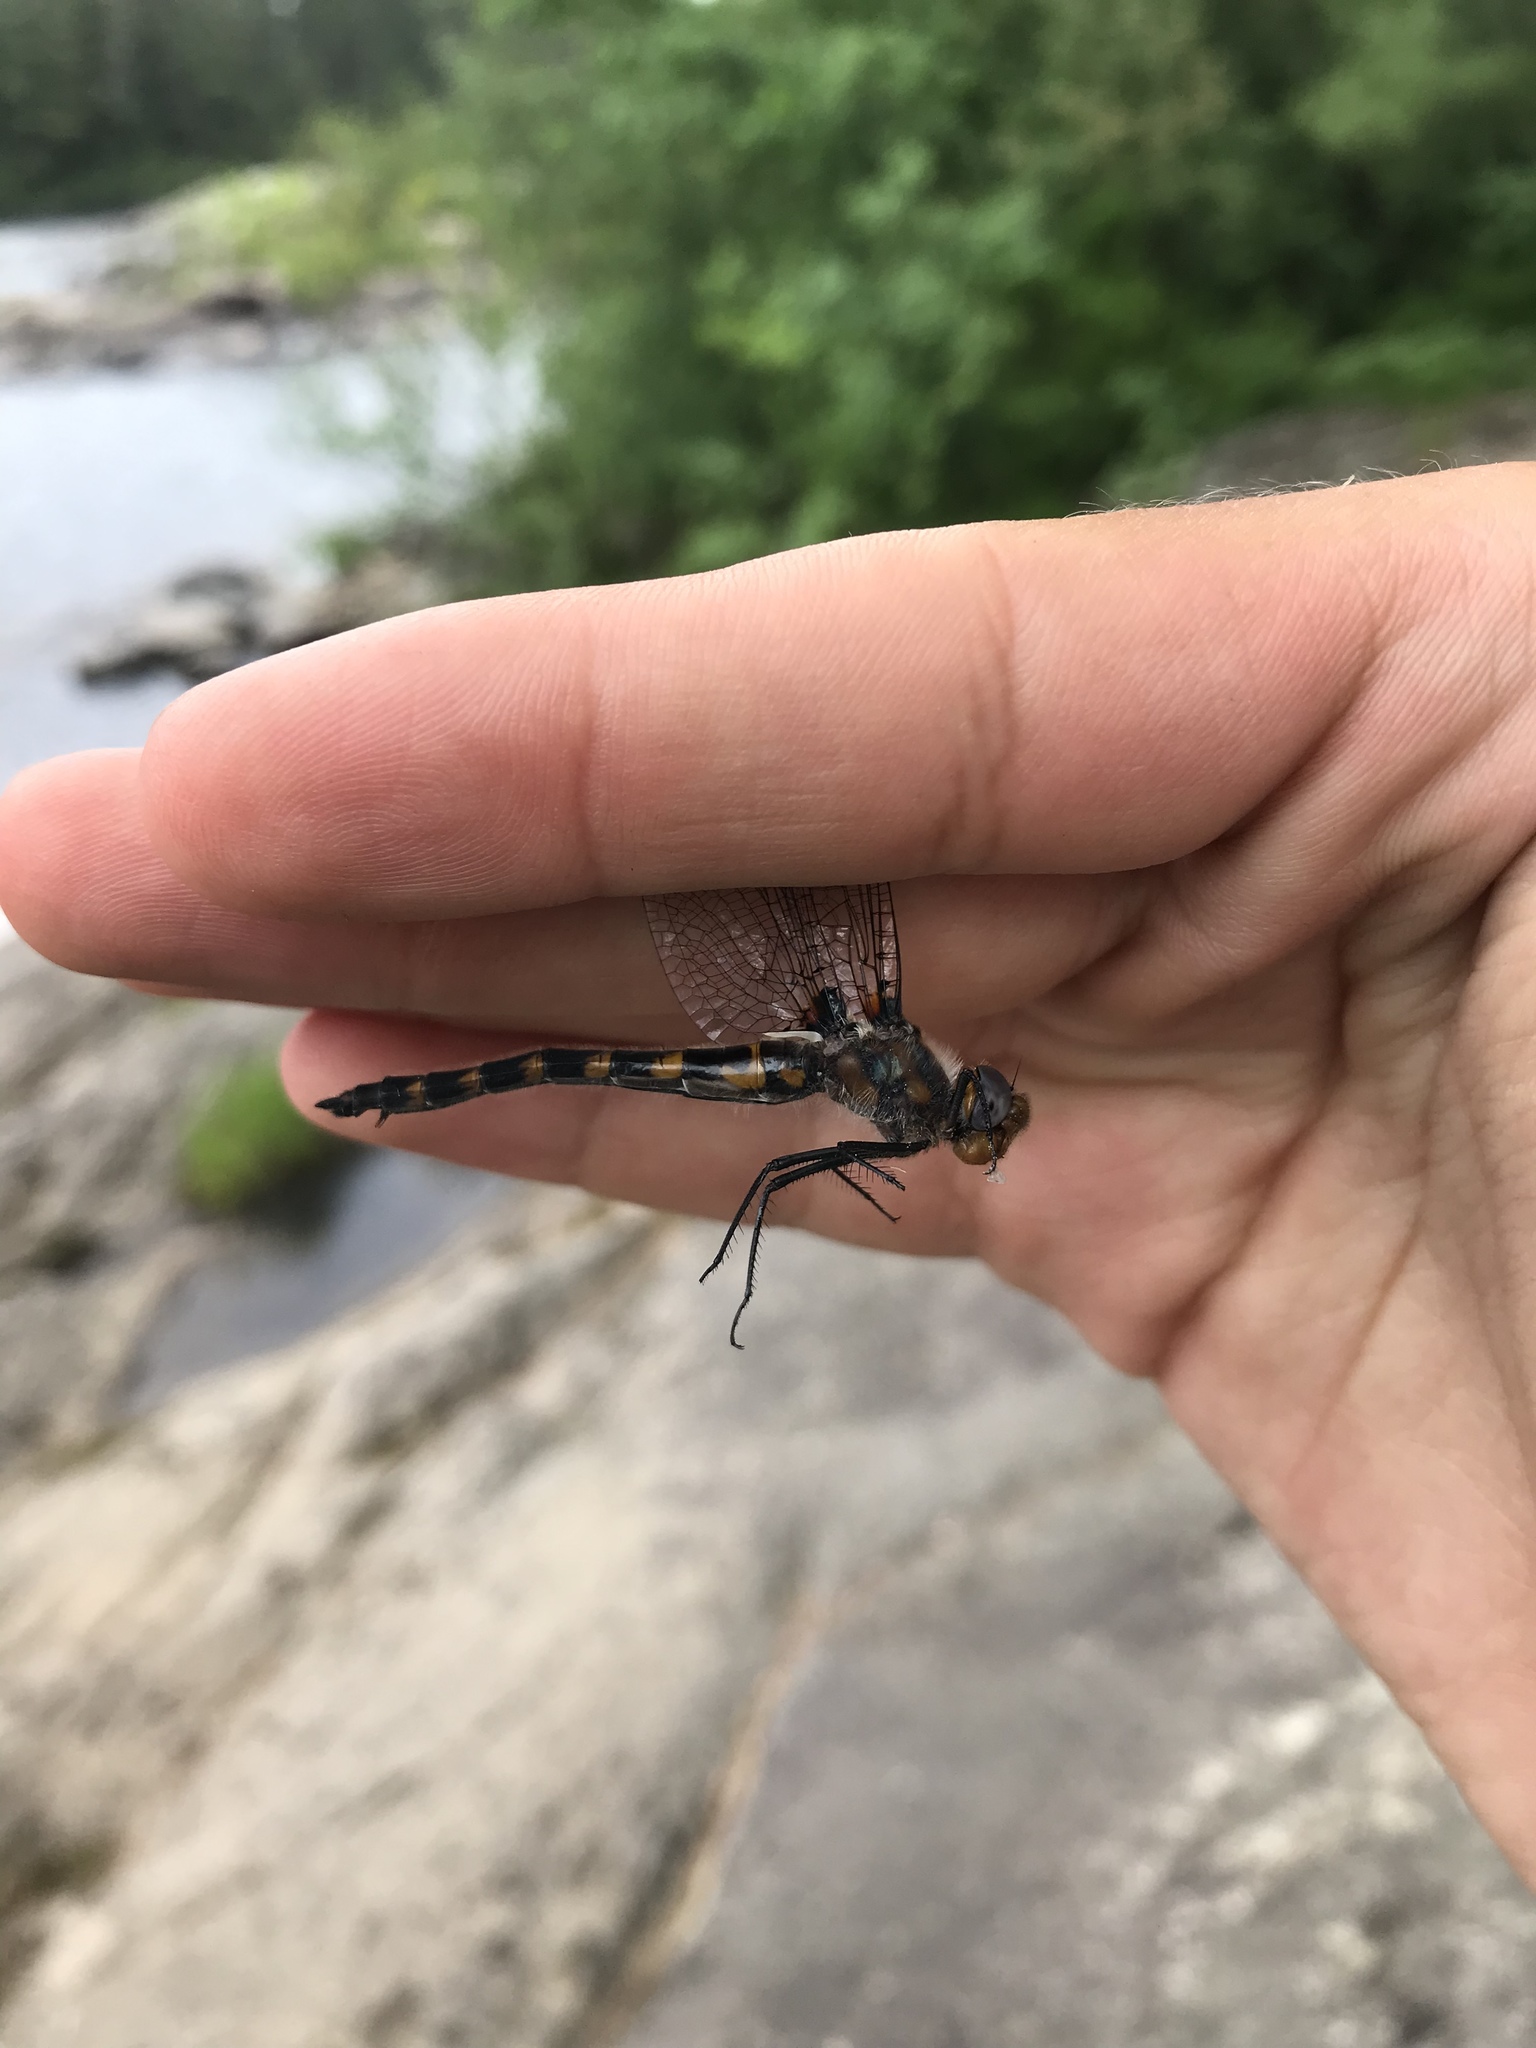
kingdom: Animalia
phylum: Arthropoda
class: Insecta
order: Odonata
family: Corduliidae
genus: Helocordulia
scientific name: Helocordulia uhleri
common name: Uhler's sundragon
